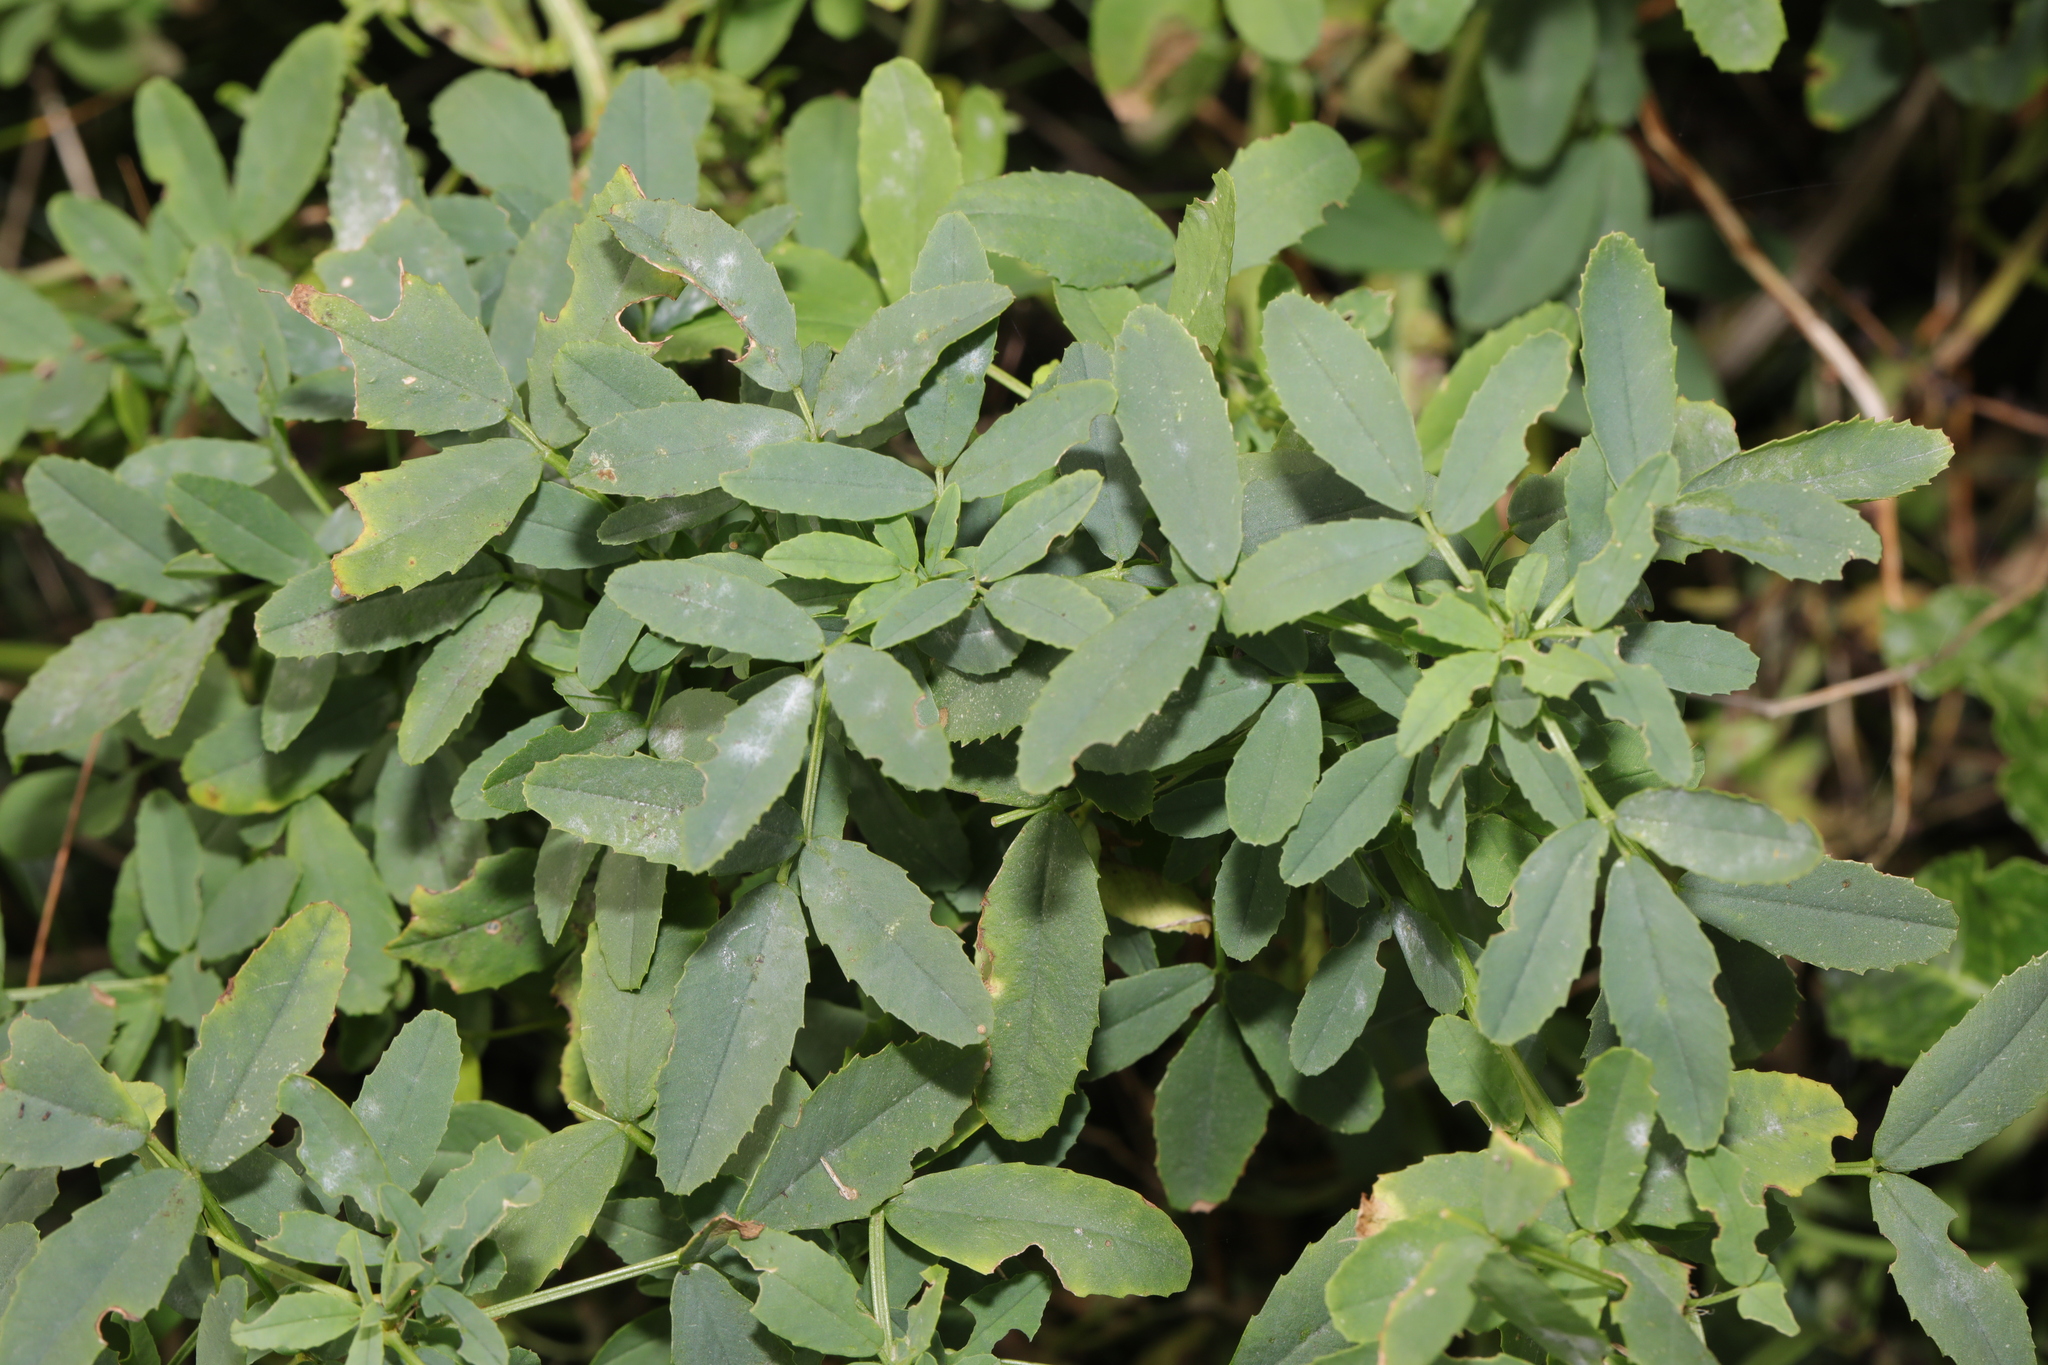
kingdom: Plantae
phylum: Tracheophyta
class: Magnoliopsida
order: Fabales
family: Fabaceae
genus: Melilotus
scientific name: Melilotus albus
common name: White melilot
